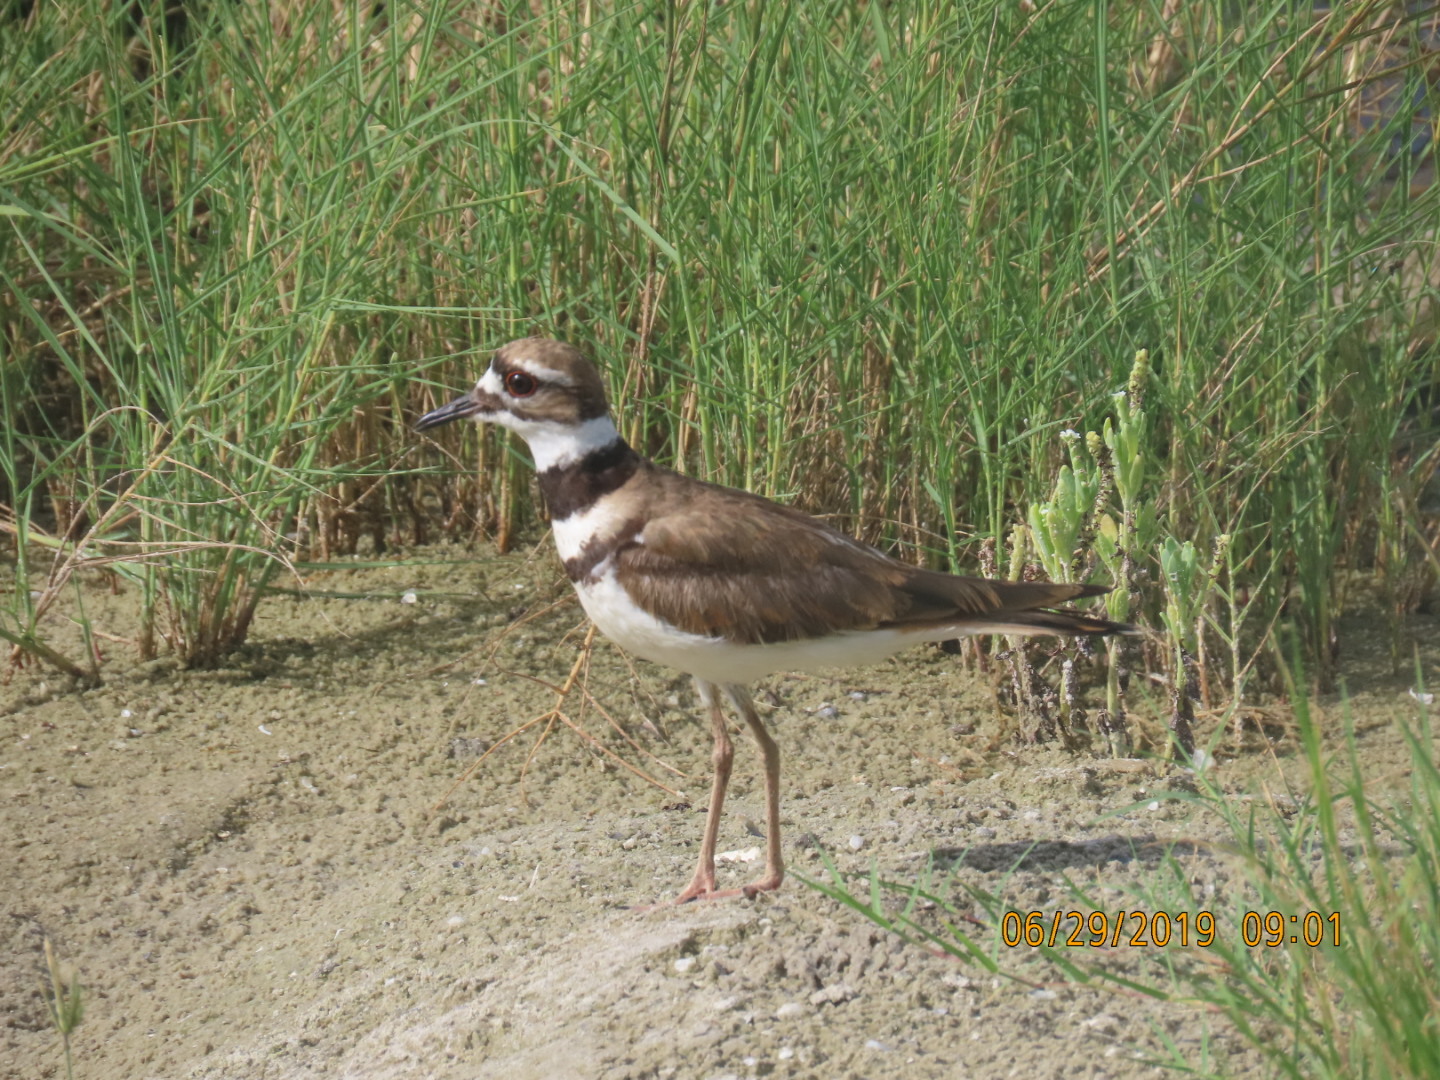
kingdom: Animalia
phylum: Chordata
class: Aves
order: Charadriiformes
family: Charadriidae
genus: Charadrius
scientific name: Charadrius vociferus
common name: Killdeer
